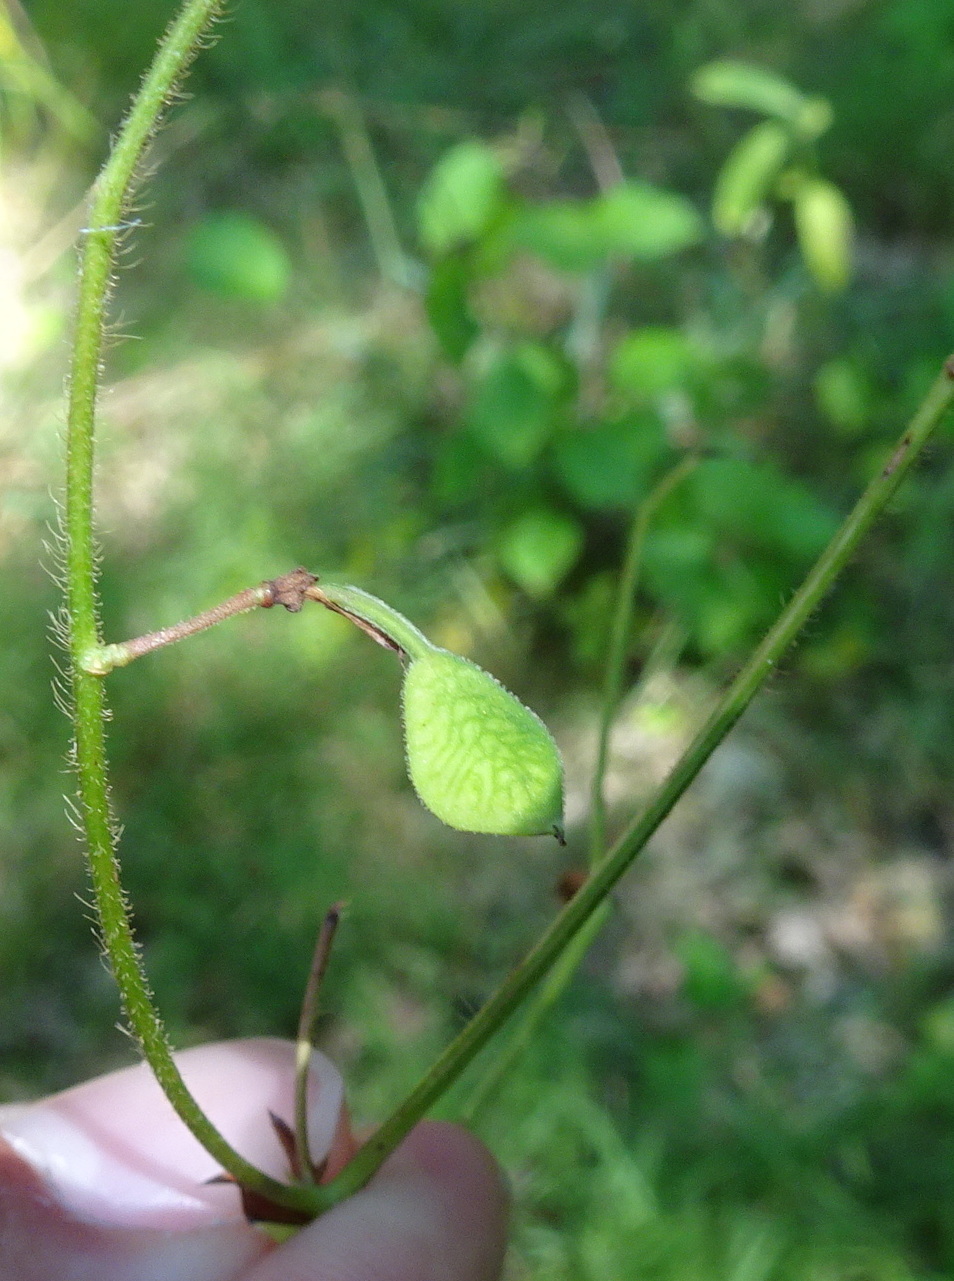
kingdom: Plantae
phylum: Tracheophyta
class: Magnoliopsida
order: Fabales
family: Fabaceae
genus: Desmodium
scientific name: Desmodium rotundifolium
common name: Dollarleaf
